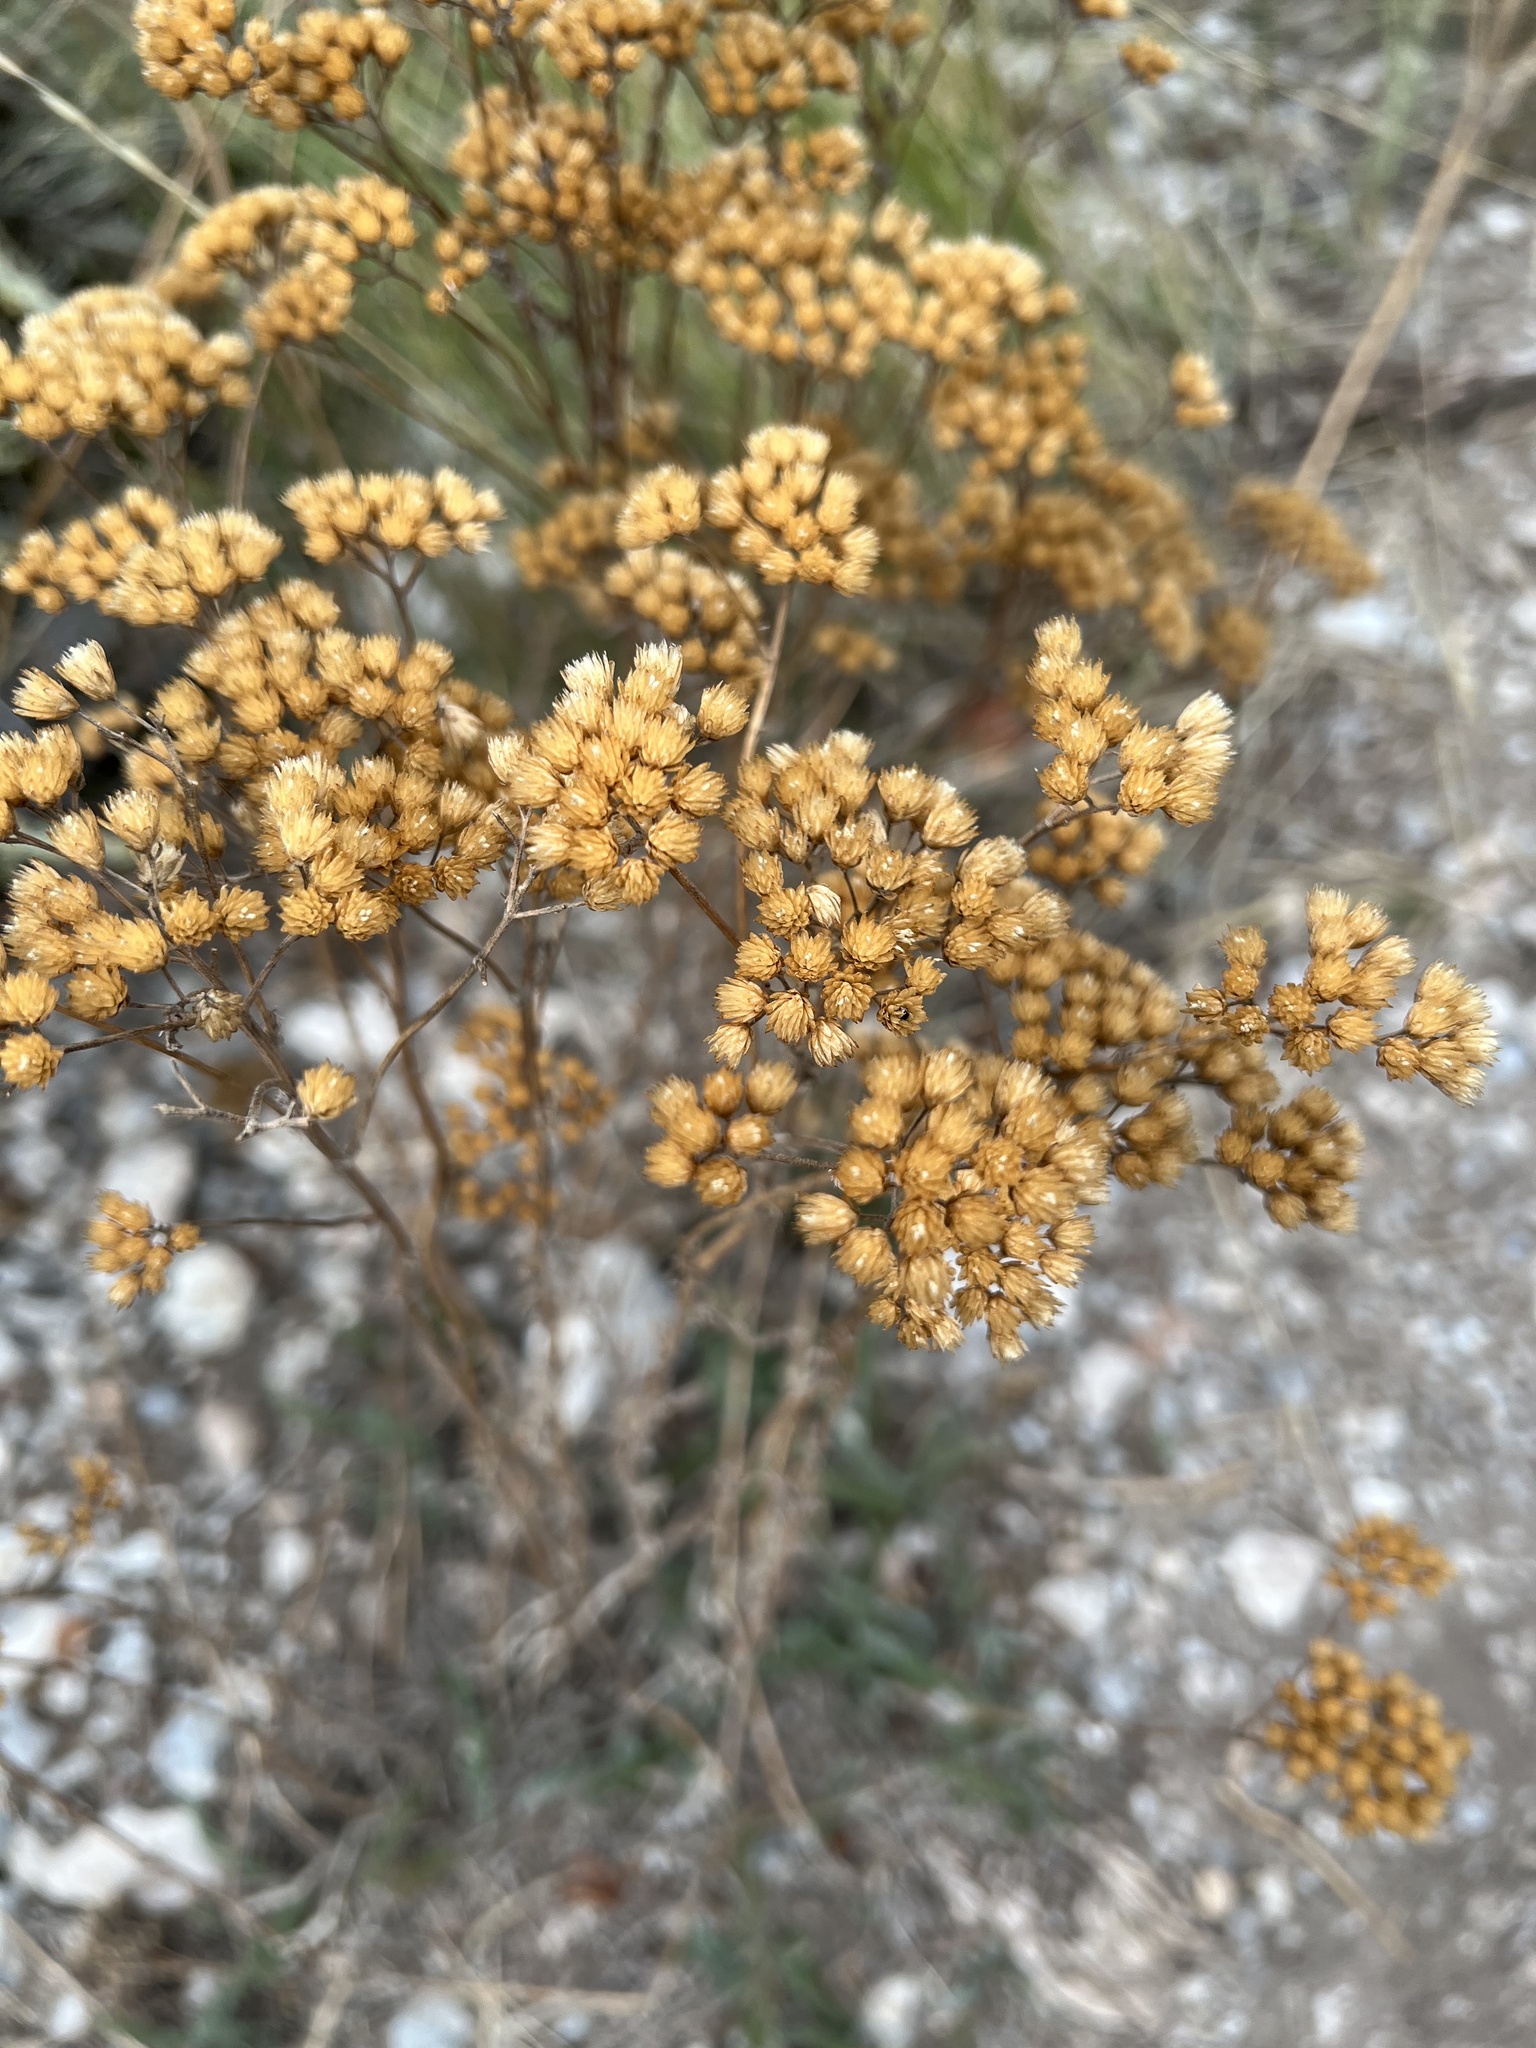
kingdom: Plantae
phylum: Tracheophyta
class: Magnoliopsida
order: Asterales
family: Asteraceae
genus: Achillea
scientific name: Achillea millefolium
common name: Yarrow
